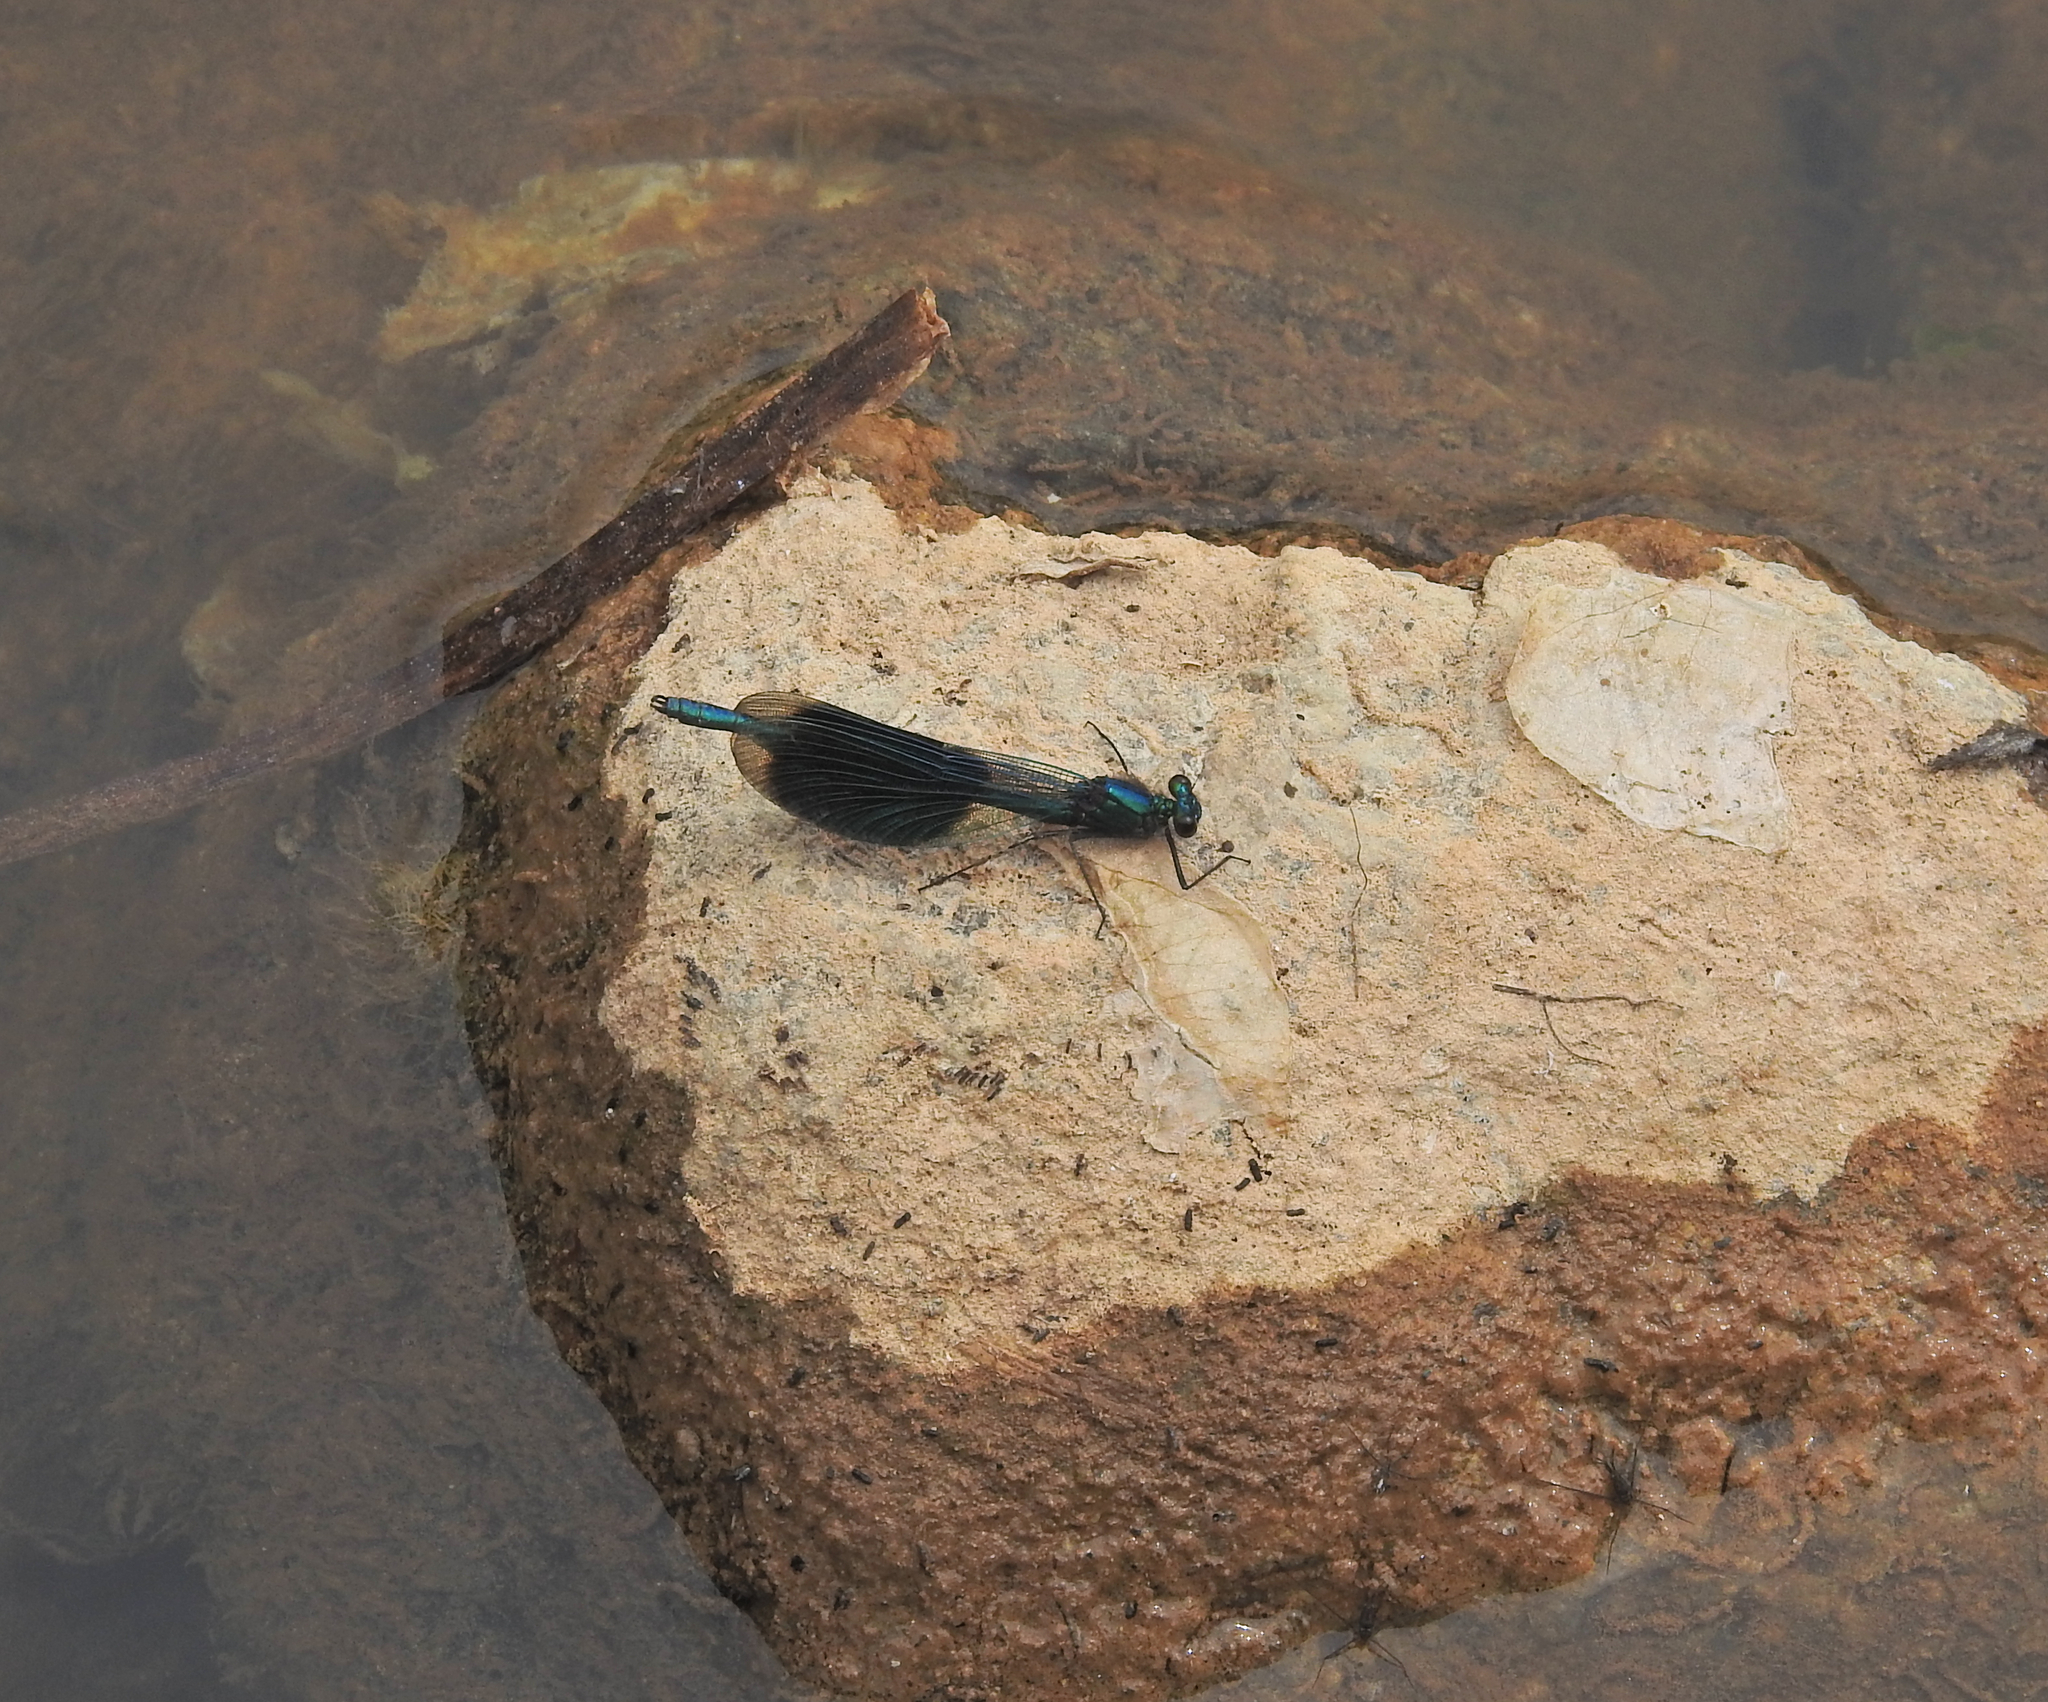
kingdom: Animalia
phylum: Arthropoda
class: Insecta
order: Odonata
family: Calopterygidae
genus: Calopteryx
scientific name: Calopteryx splendens
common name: Banded demoiselle
